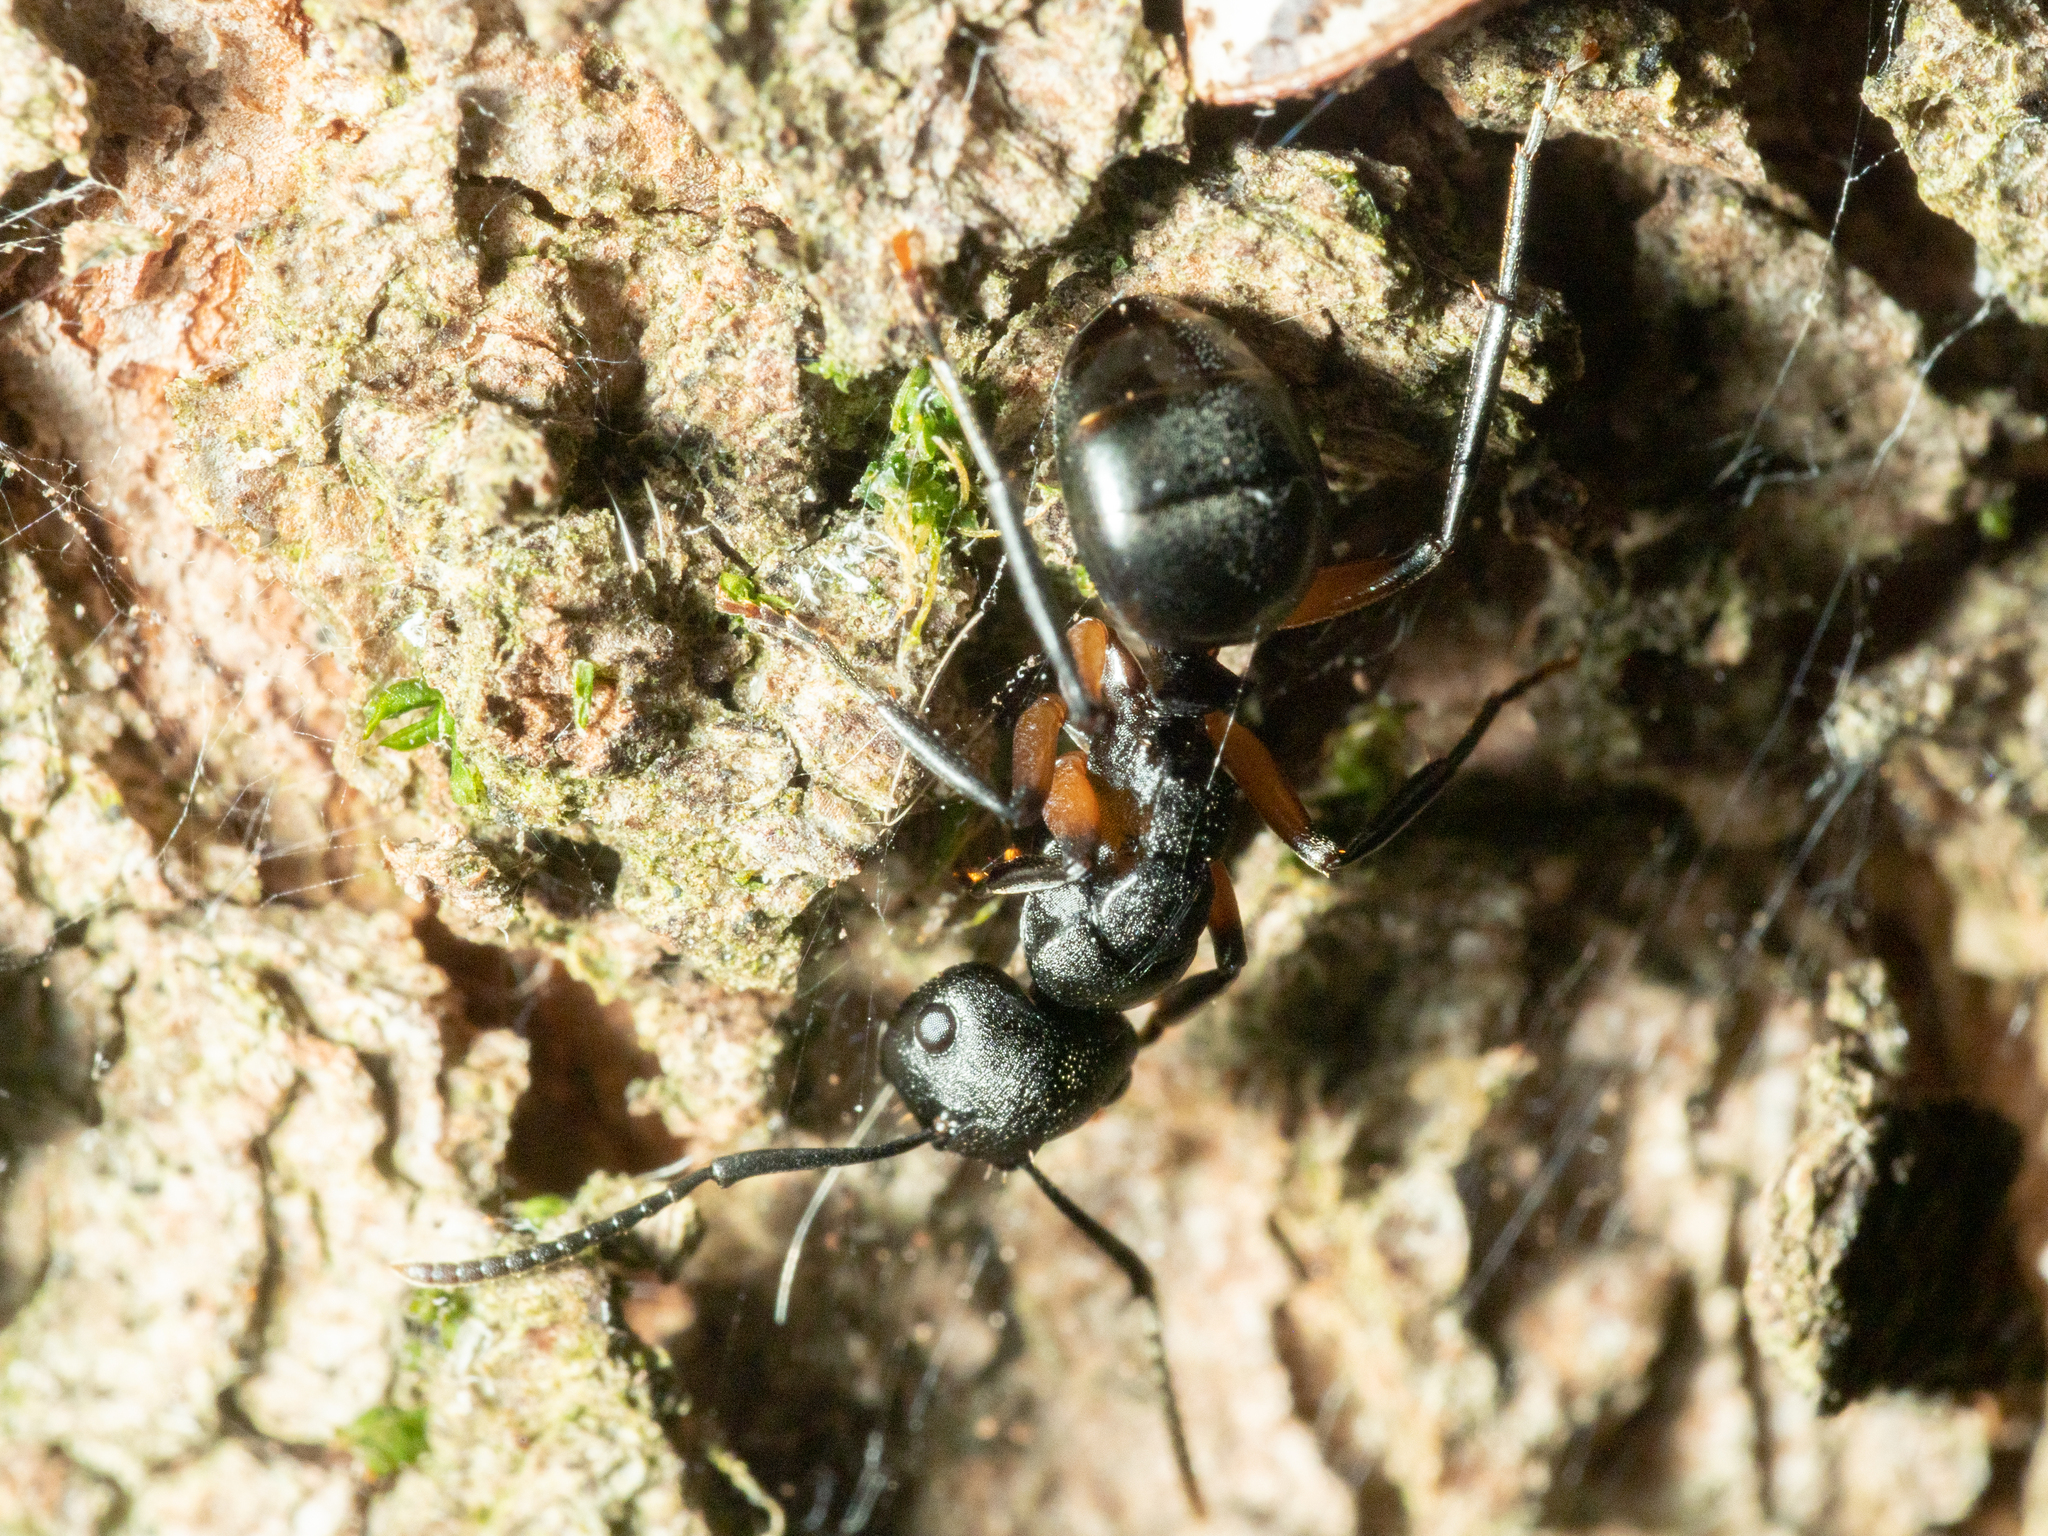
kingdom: Animalia
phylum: Arthropoda
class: Insecta
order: Hymenoptera
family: Formicidae
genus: Polyrhachis
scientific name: Polyrhachis femorata
